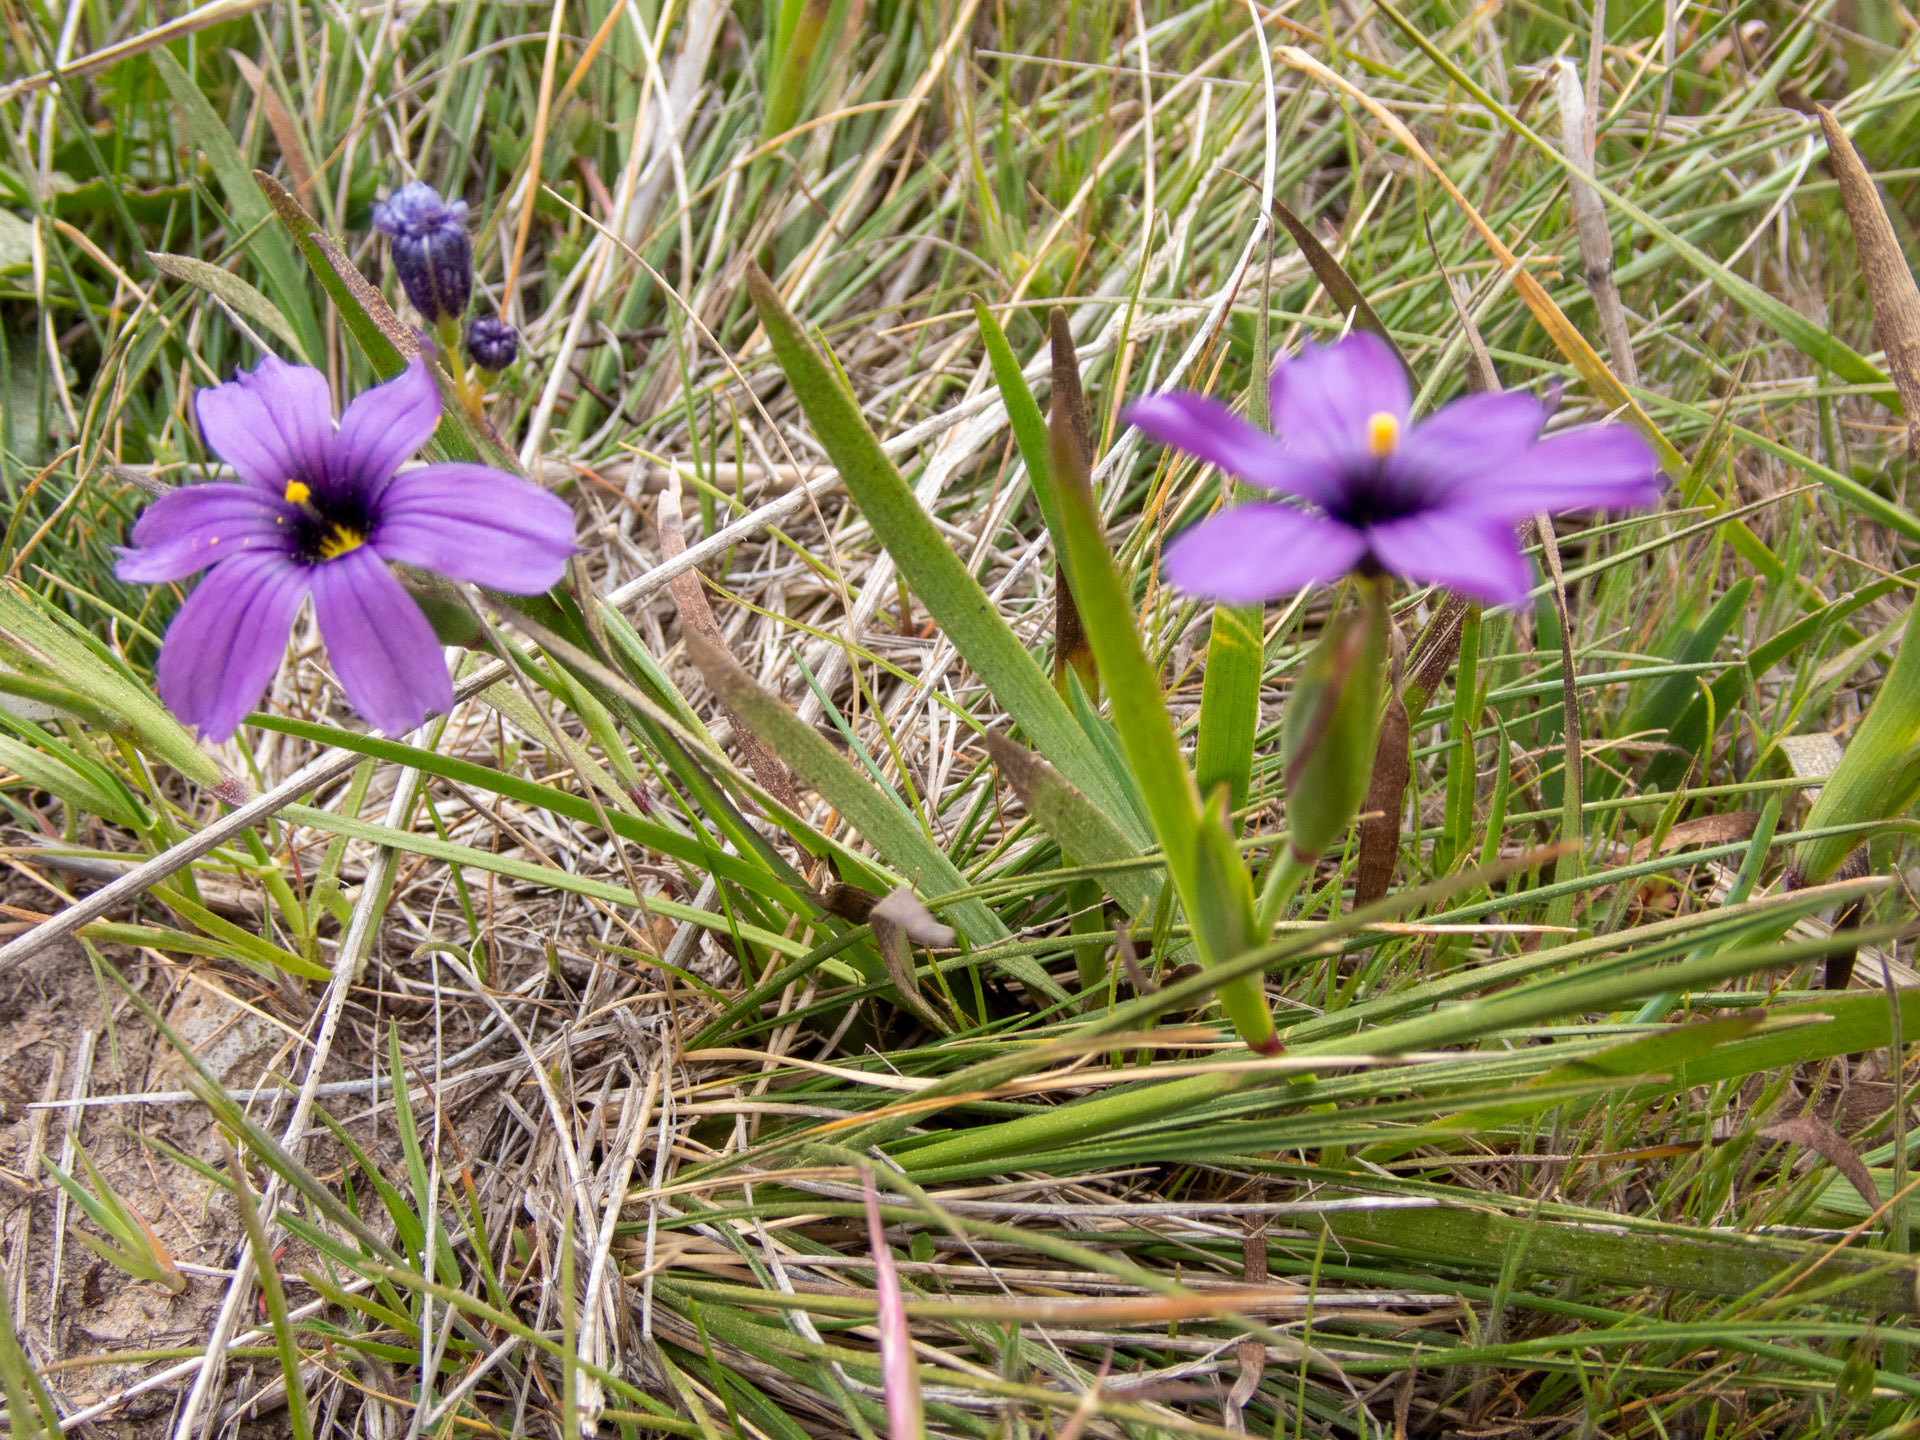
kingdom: Plantae
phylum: Tracheophyta
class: Liliopsida
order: Asparagales
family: Iridaceae
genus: Sisyrinchium
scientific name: Sisyrinchium bellum
